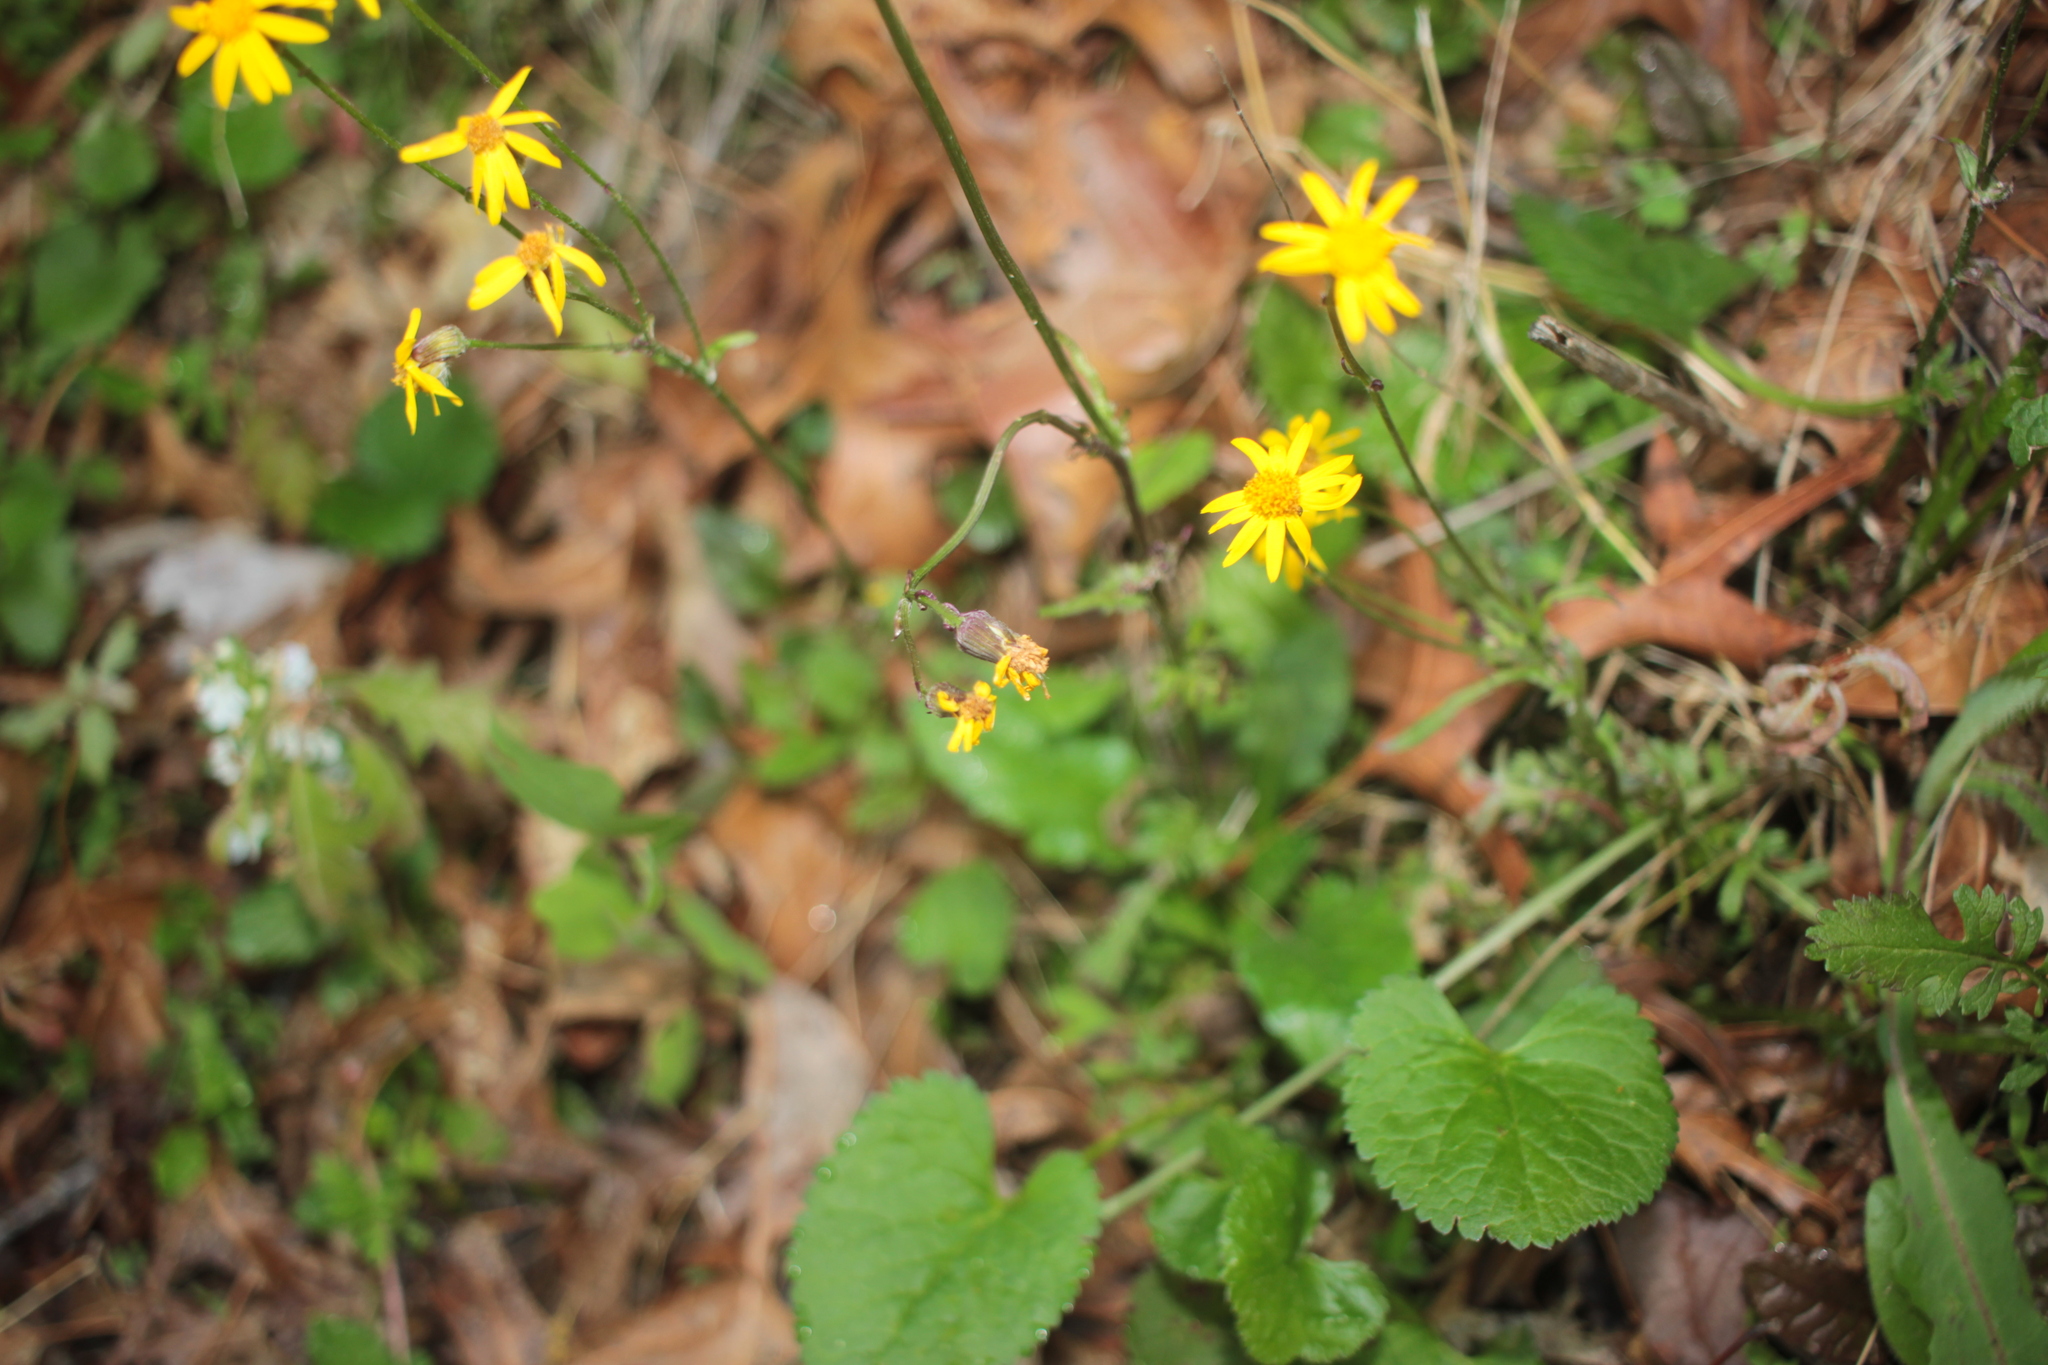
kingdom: Plantae
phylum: Tracheophyta
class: Magnoliopsida
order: Asterales
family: Asteraceae
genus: Packera
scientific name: Packera aurea
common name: Golden groundsel
